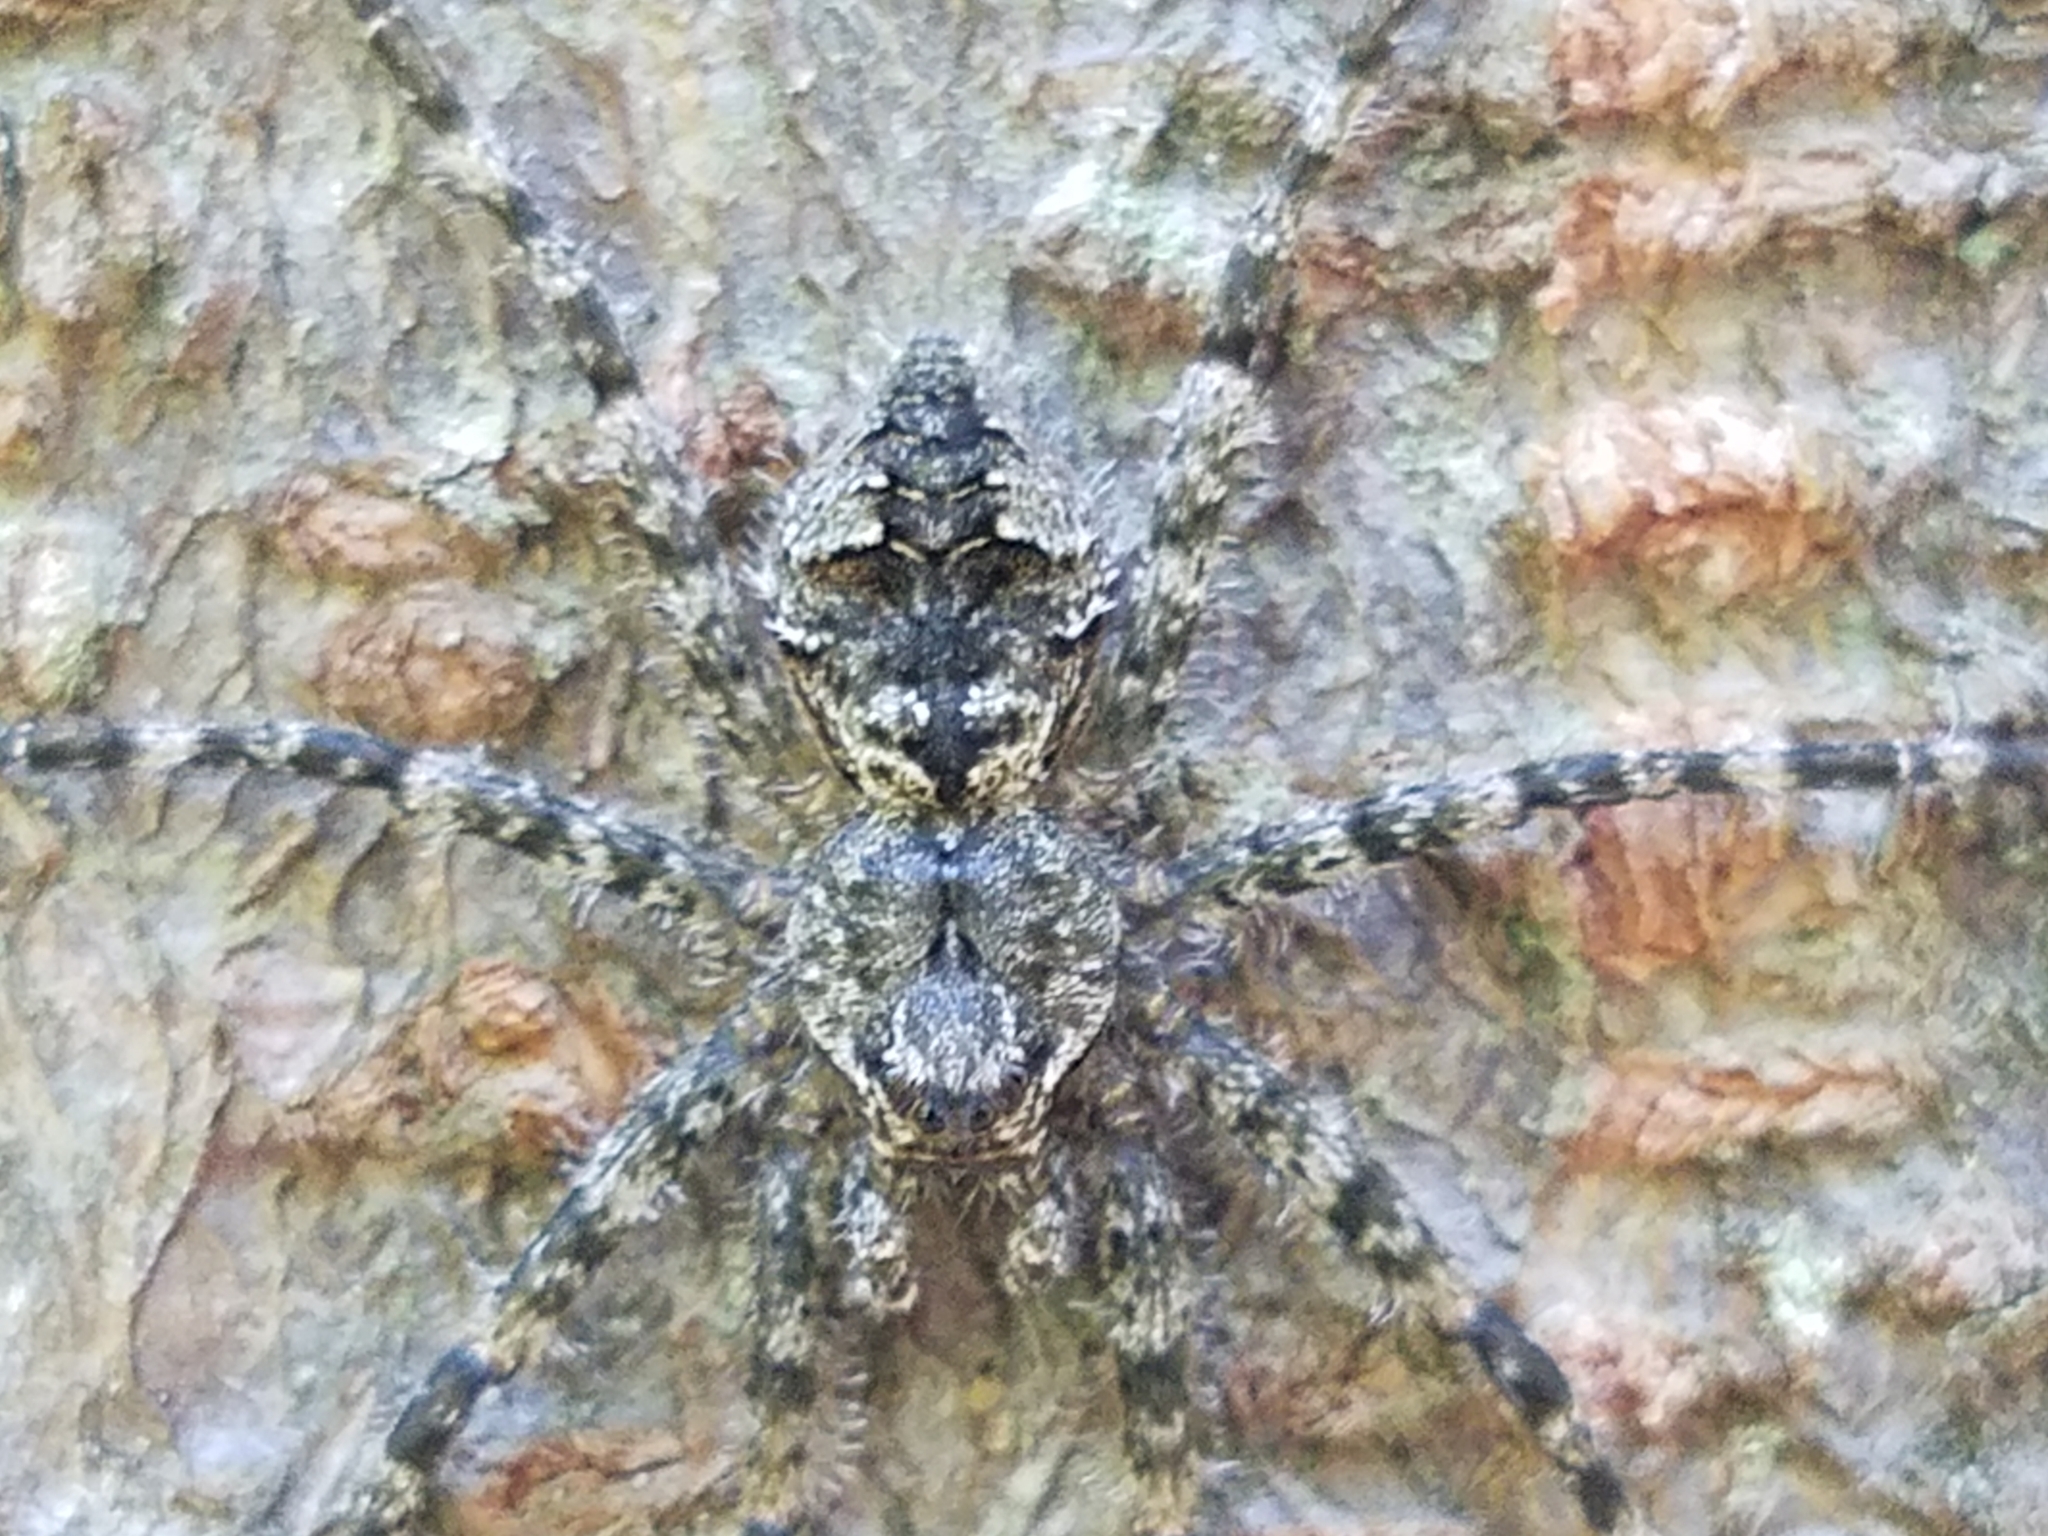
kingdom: Animalia
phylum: Arthropoda
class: Arachnida
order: Araneae
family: Pisauridae
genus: Dolomedes
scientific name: Dolomedes albineus
